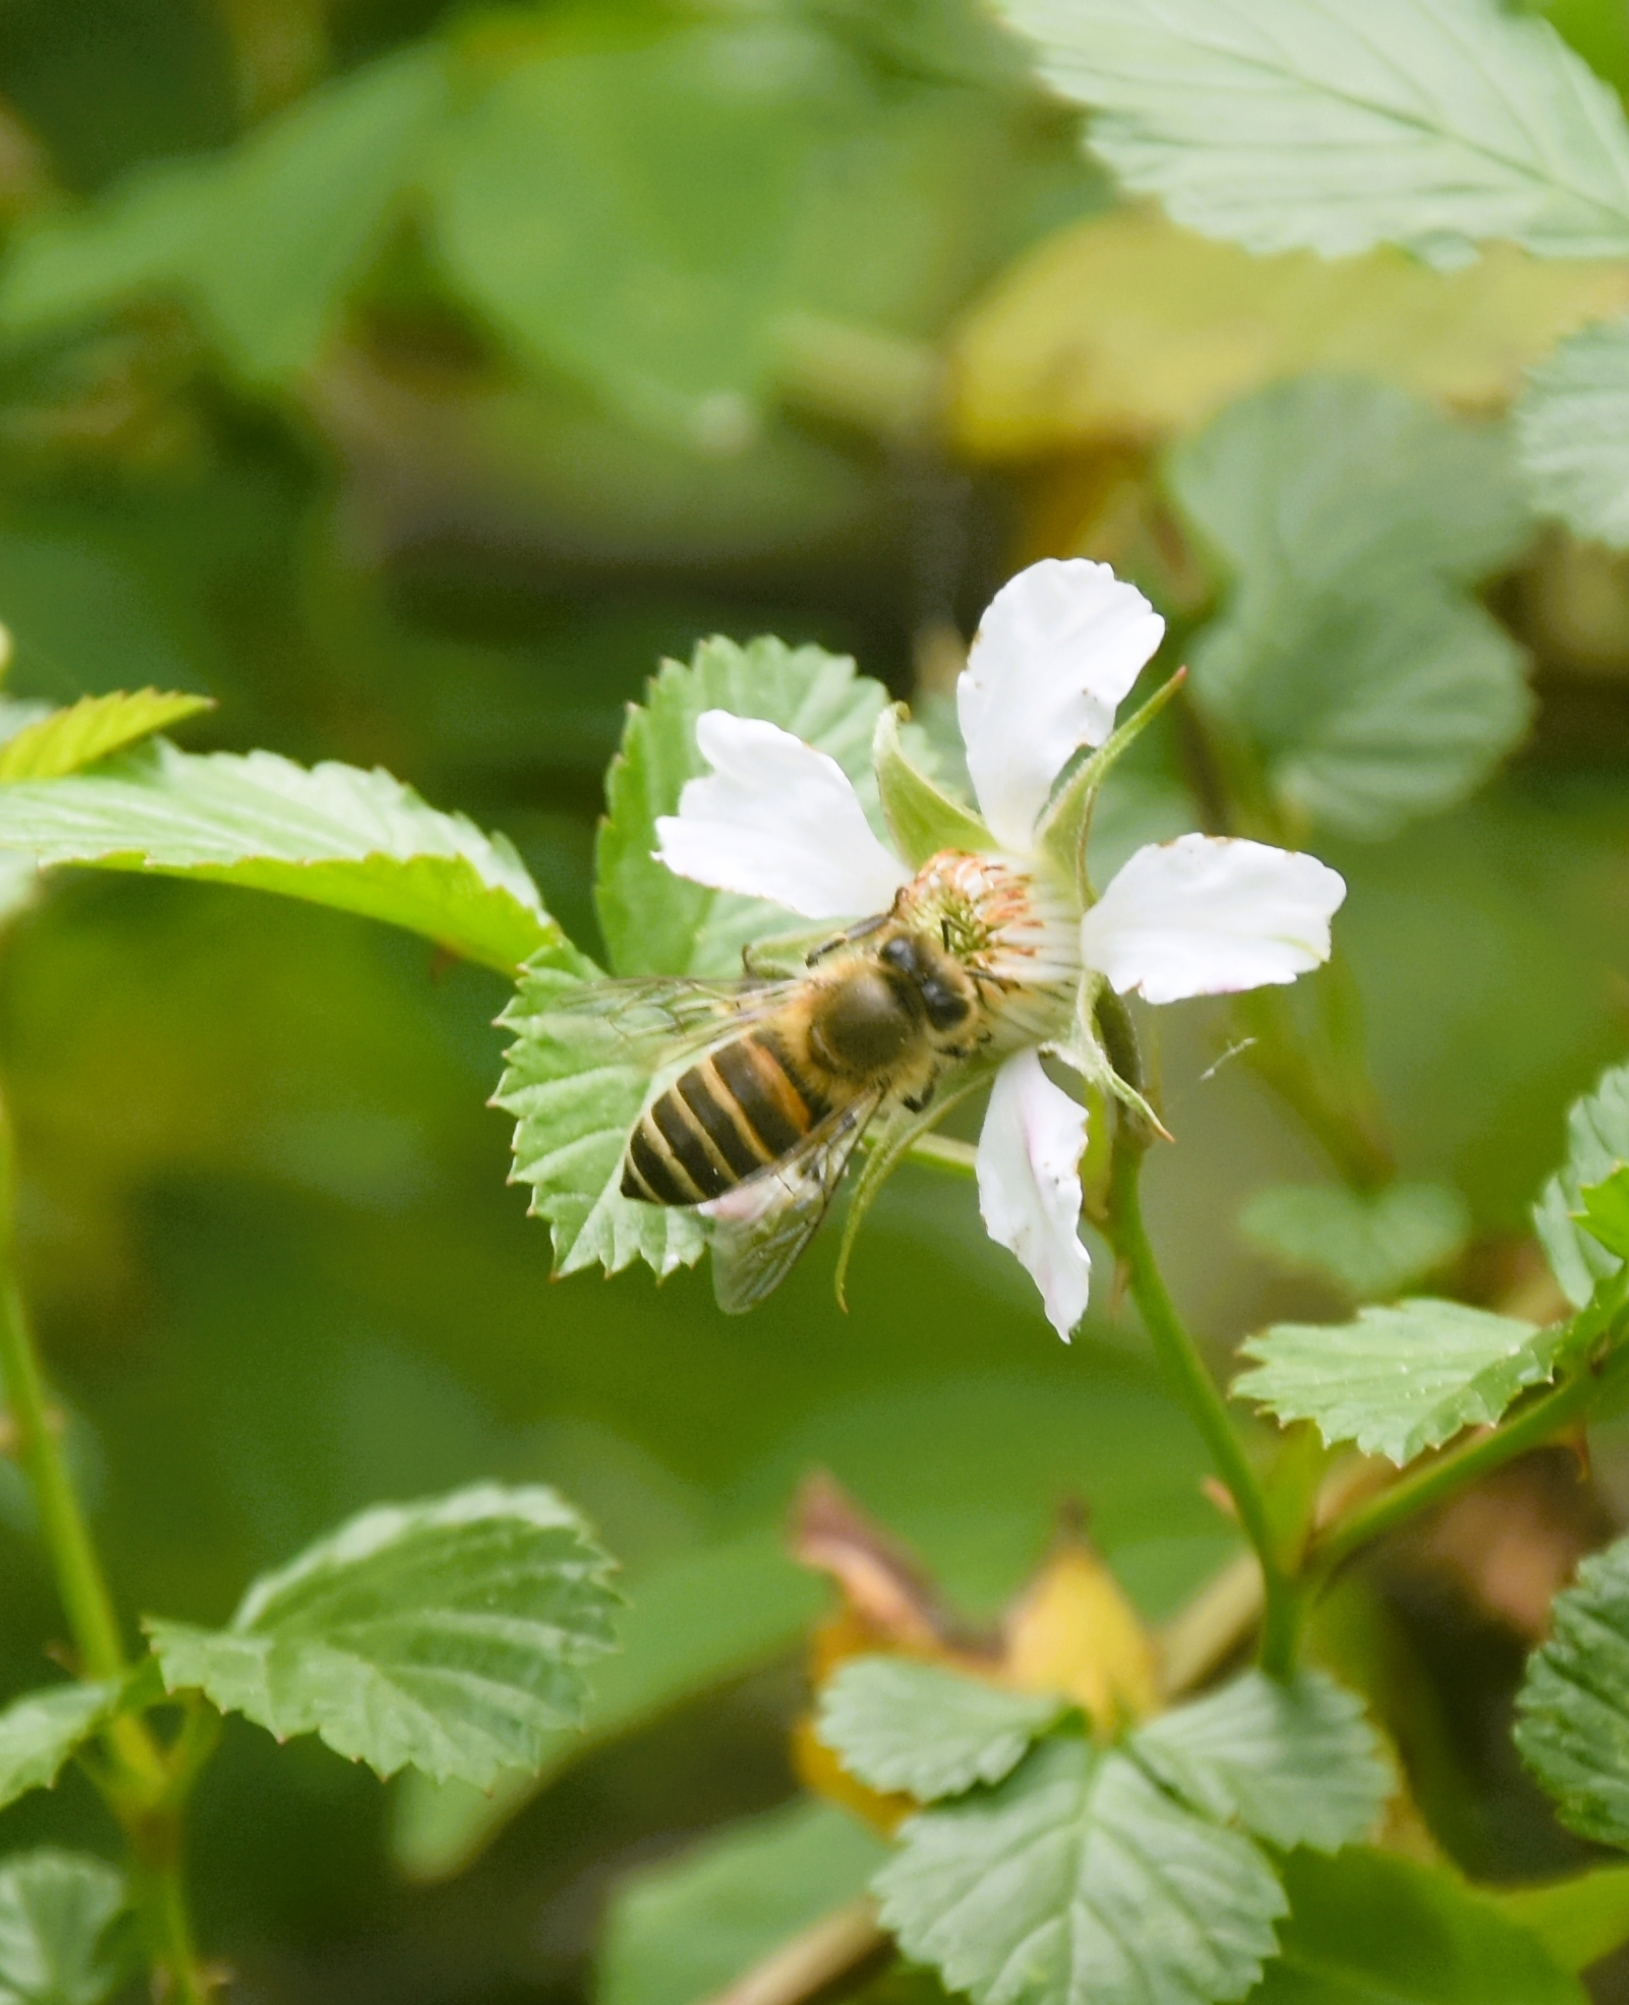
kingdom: Animalia
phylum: Arthropoda
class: Insecta
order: Hymenoptera
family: Apidae
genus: Apis
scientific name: Apis cerana
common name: Honey bee
